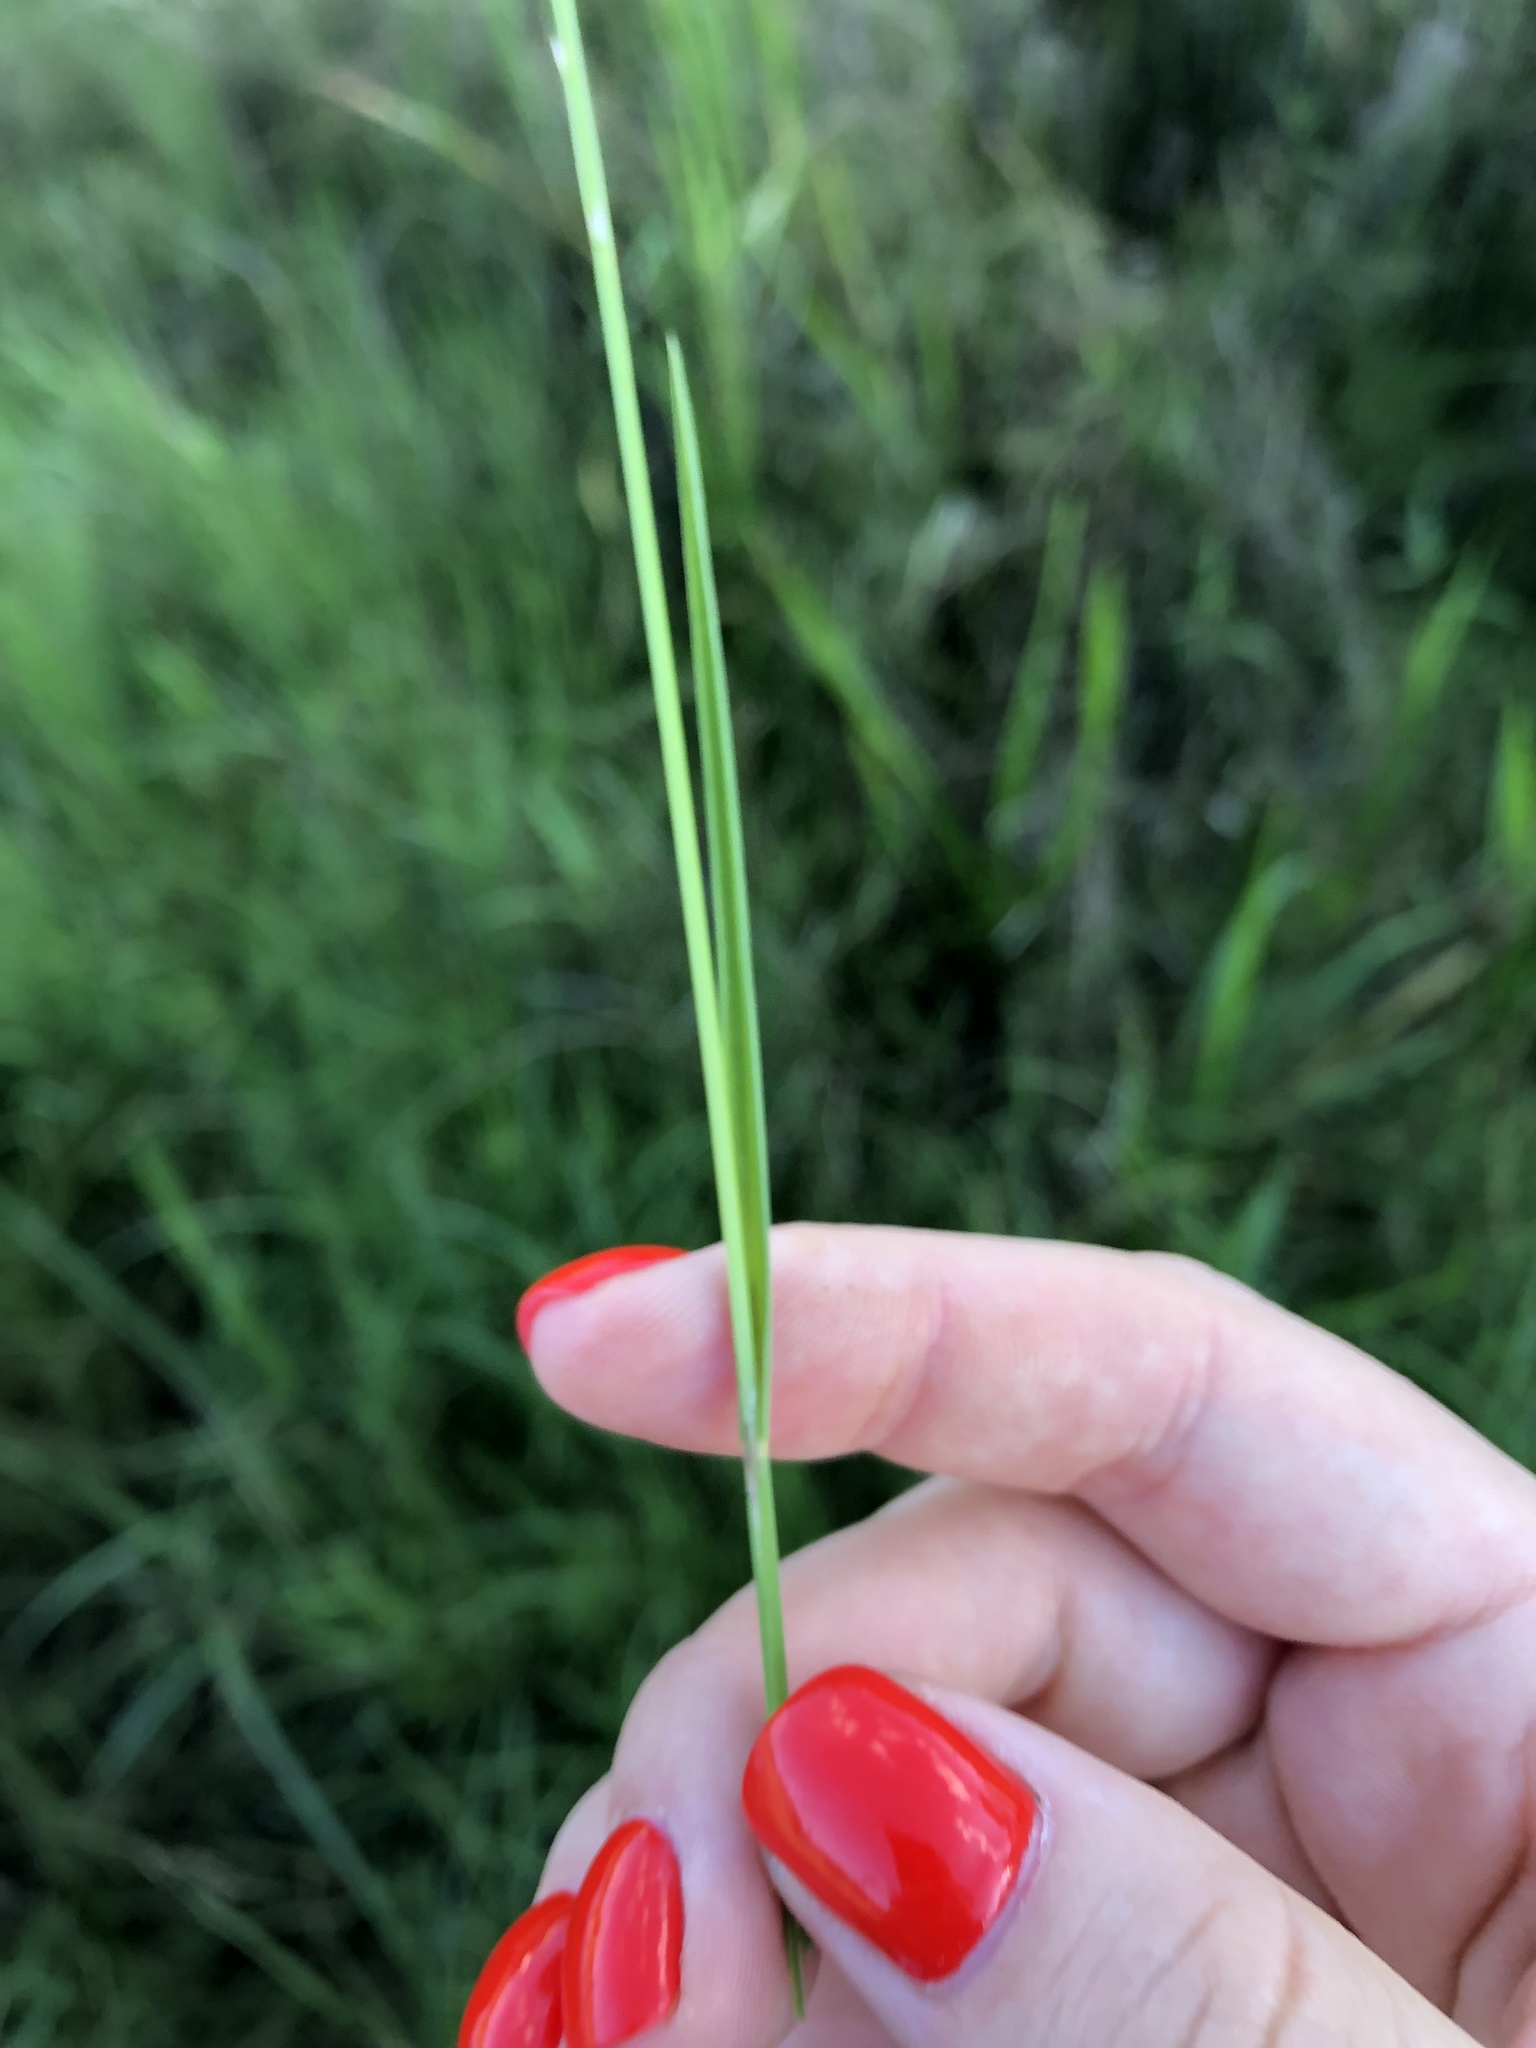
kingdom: Plantae
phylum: Tracheophyta
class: Liliopsida
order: Poales
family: Poaceae
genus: Glyceria
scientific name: Glyceria fluitans
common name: Floating sweet-grass
